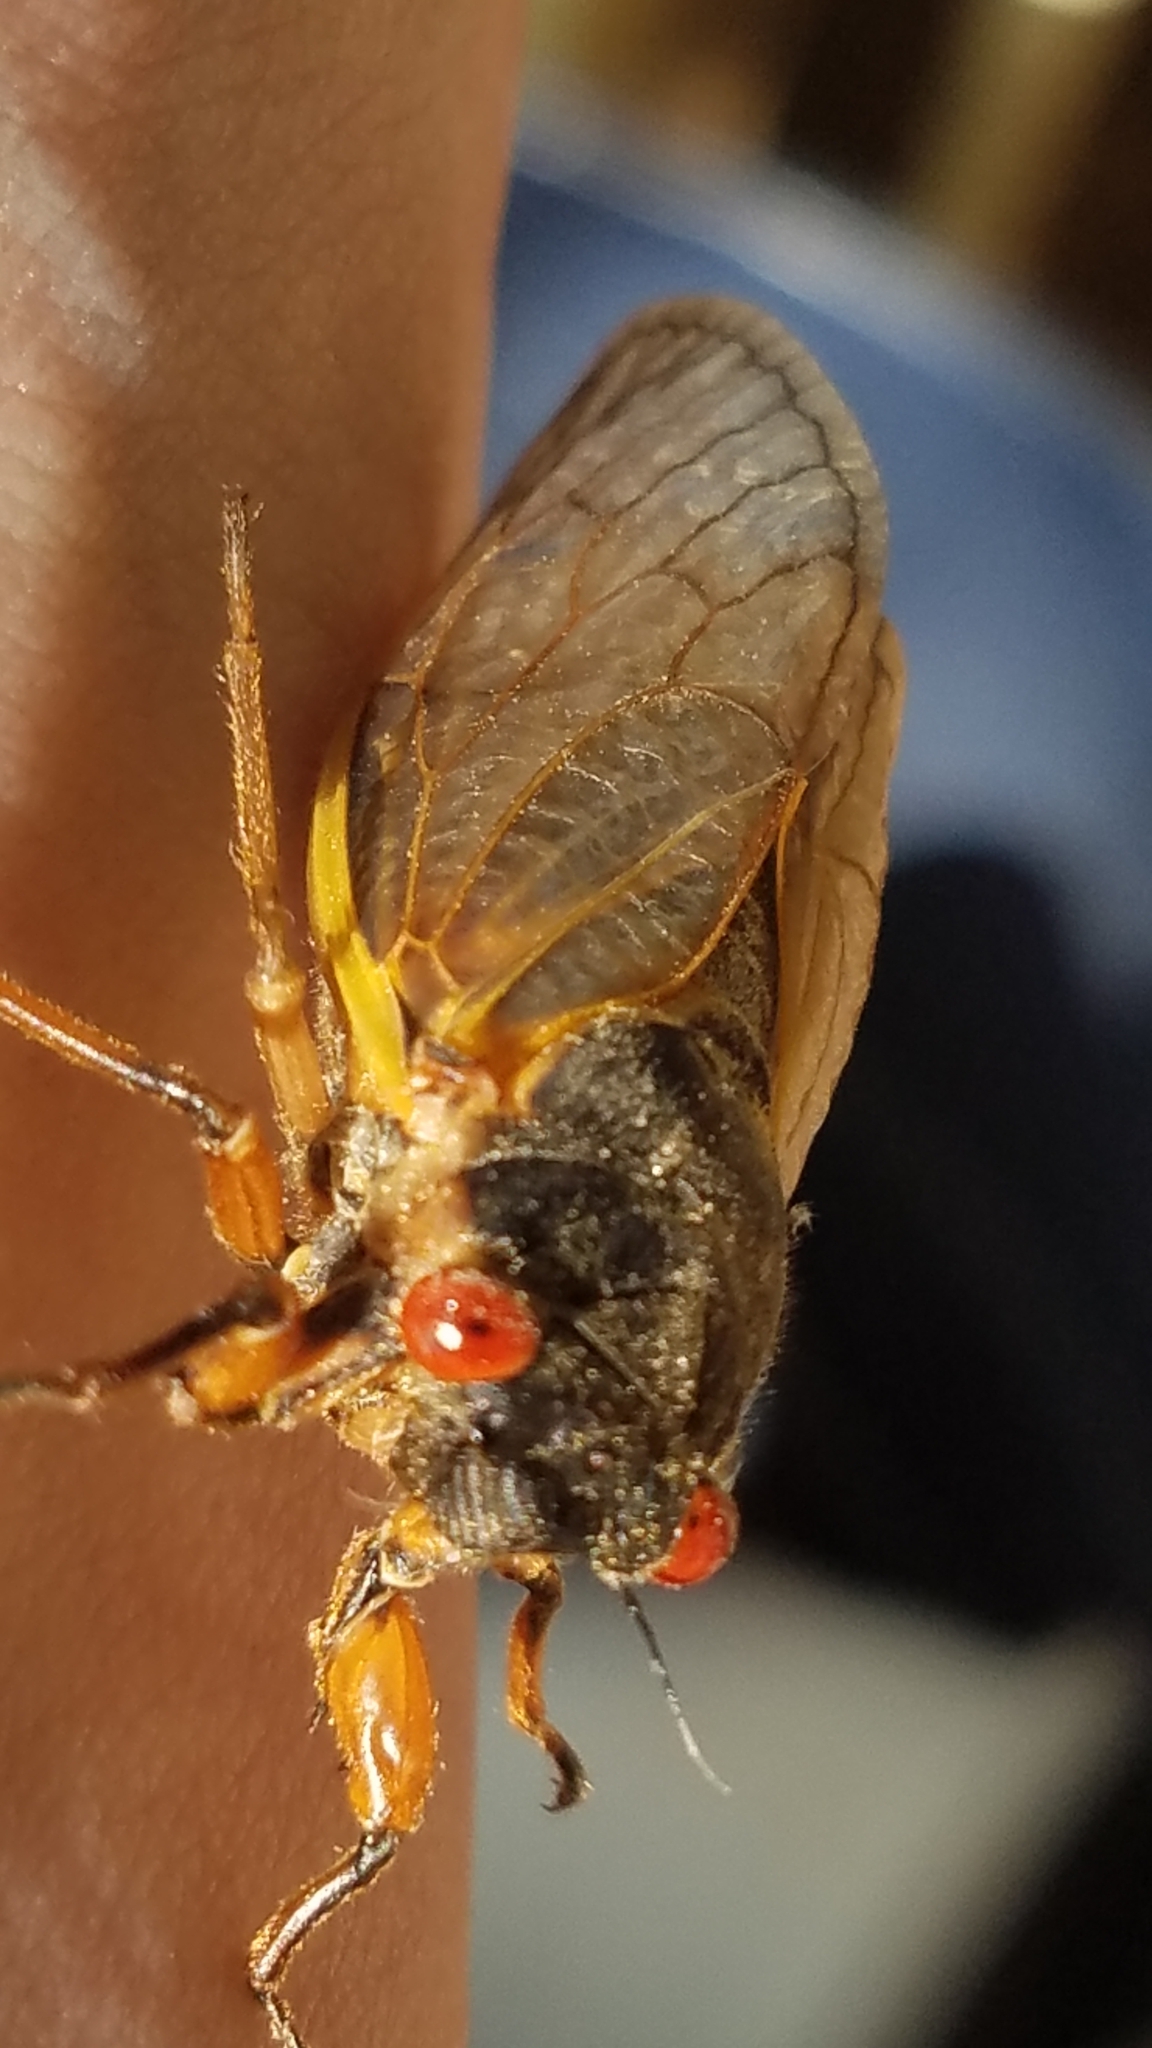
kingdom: Animalia
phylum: Arthropoda
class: Insecta
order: Hemiptera
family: Cicadidae
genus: Magicicada
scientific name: Magicicada septendecim
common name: Periodical cicada
